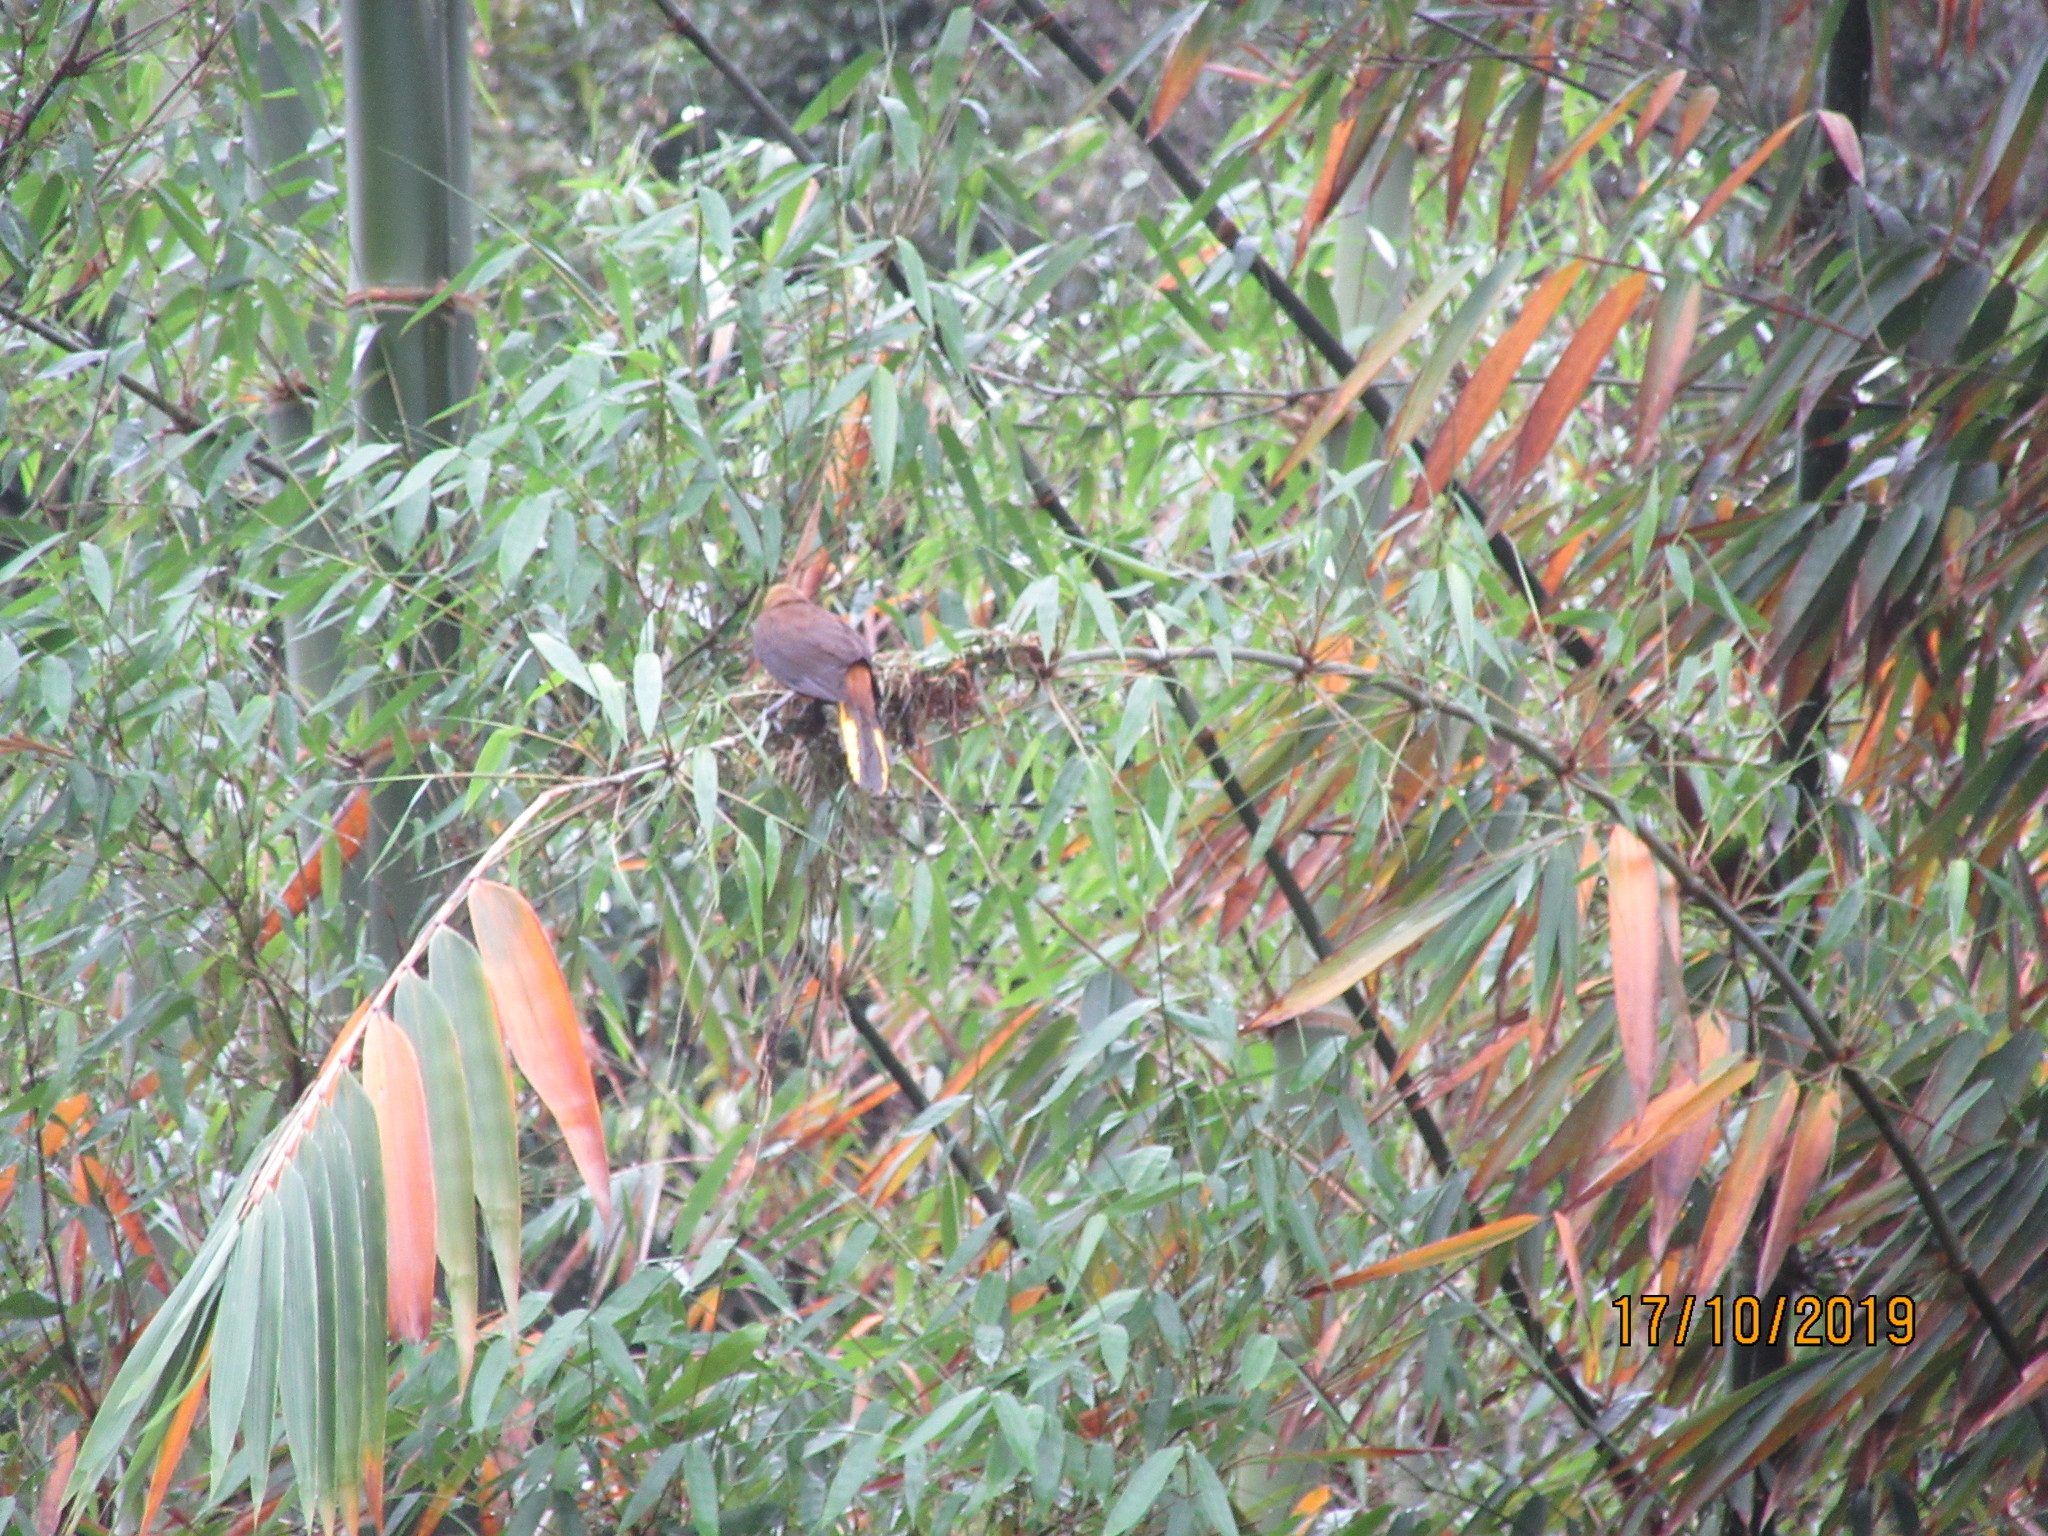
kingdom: Animalia
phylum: Chordata
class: Aves
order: Passeriformes
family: Icteridae
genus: Psarocolius
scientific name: Psarocolius angustifrons
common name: Russet-backed oropendola
